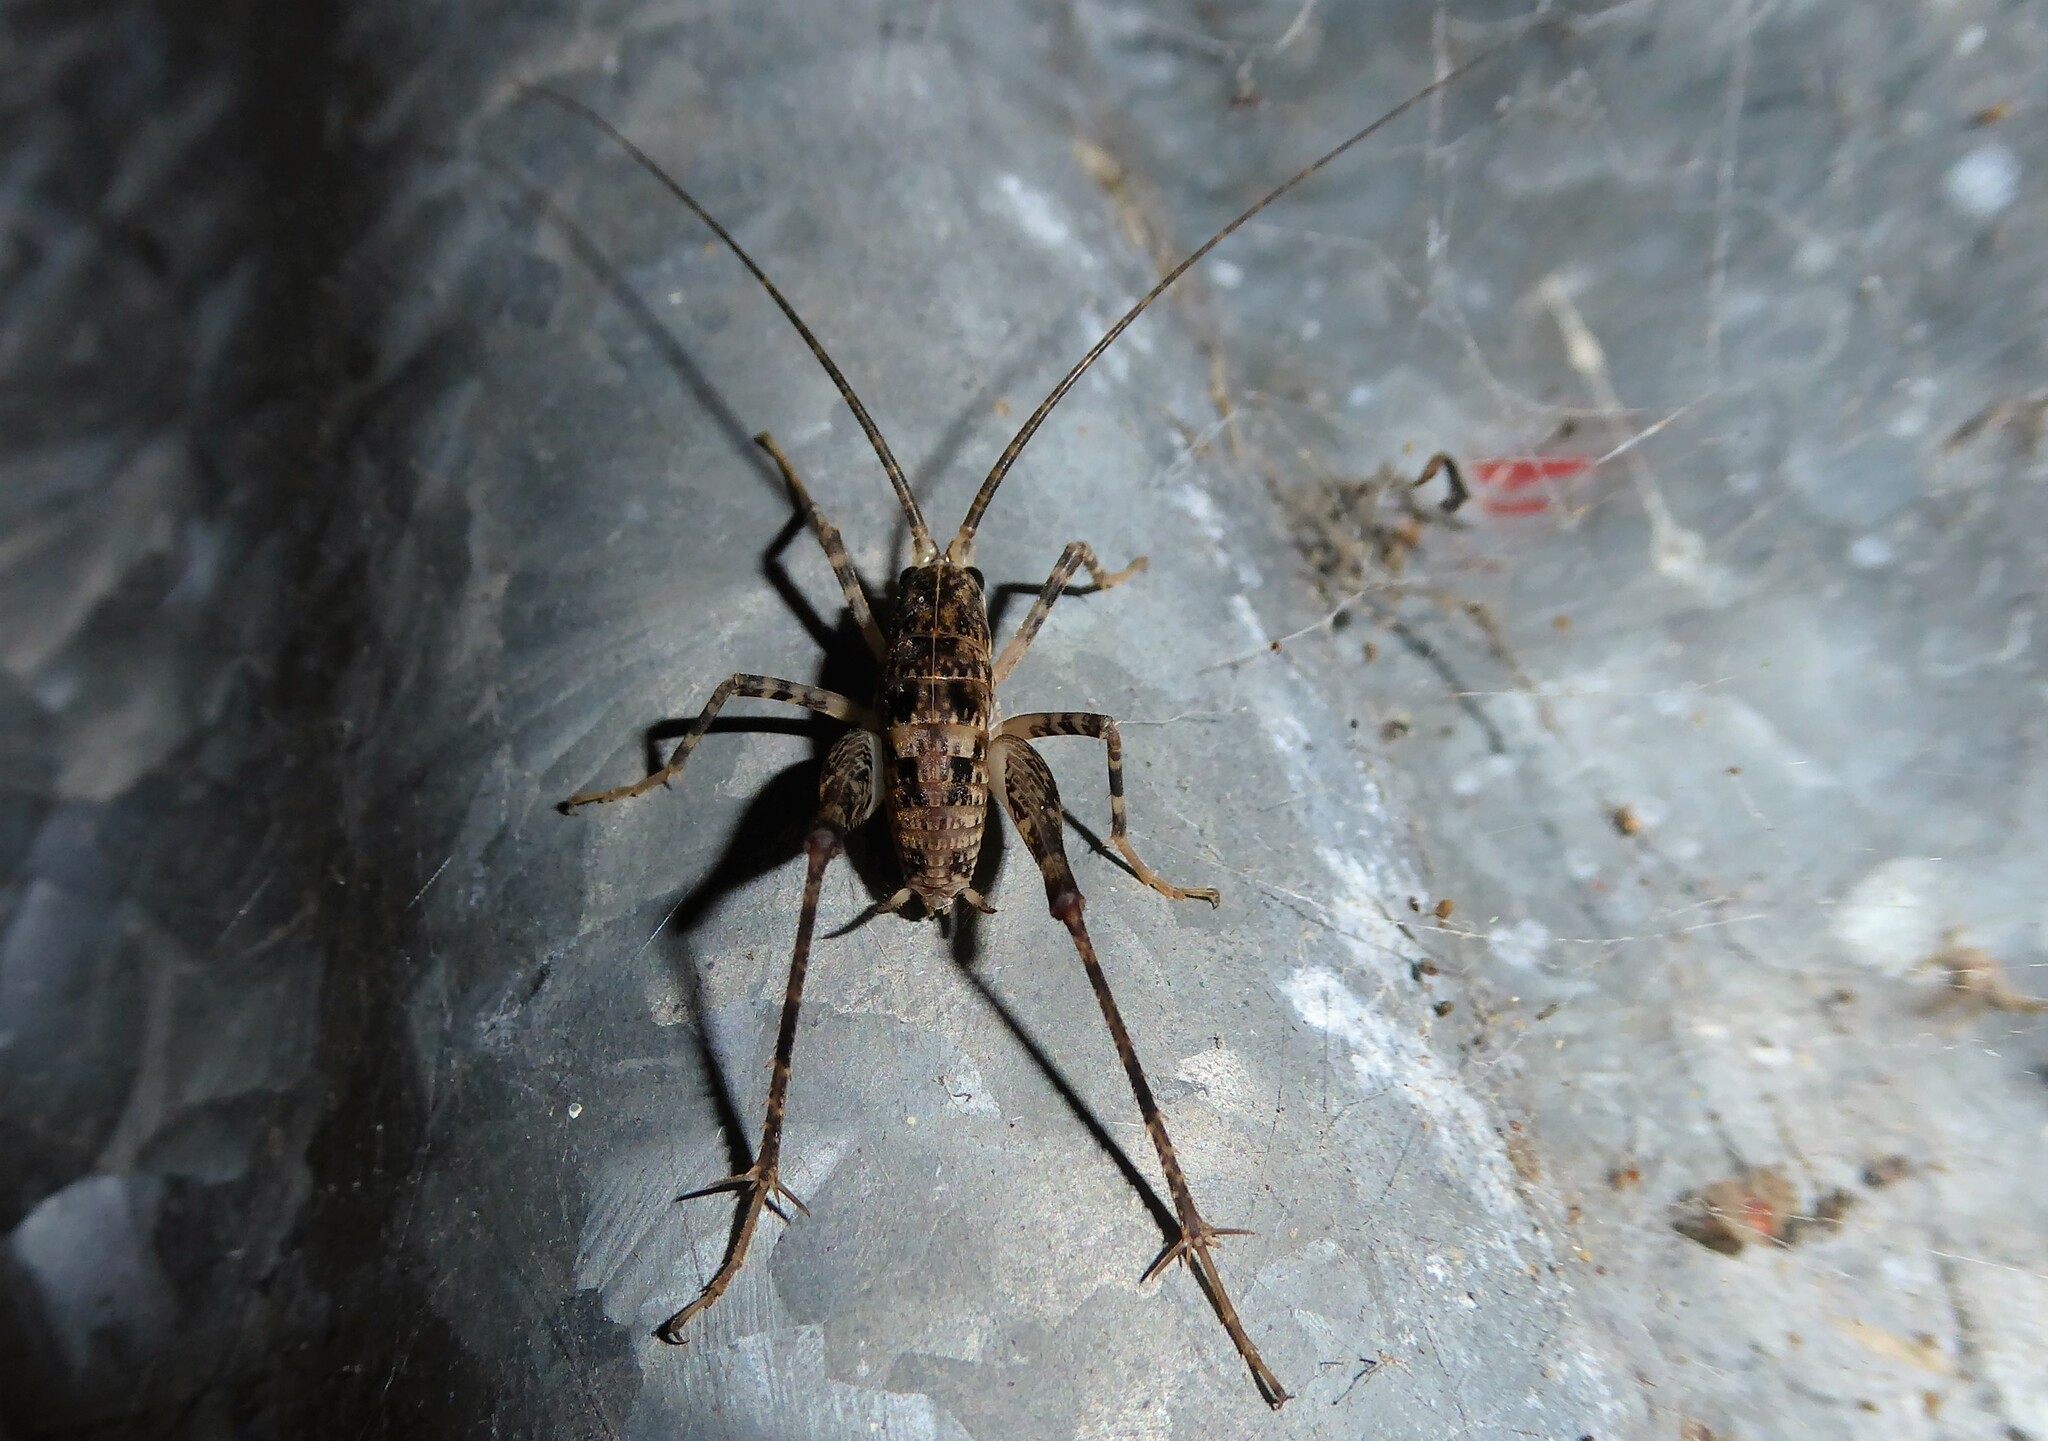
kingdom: Animalia
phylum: Arthropoda
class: Insecta
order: Orthoptera
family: Rhaphidophoridae
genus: Pleioplectron
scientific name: Pleioplectron simplex
